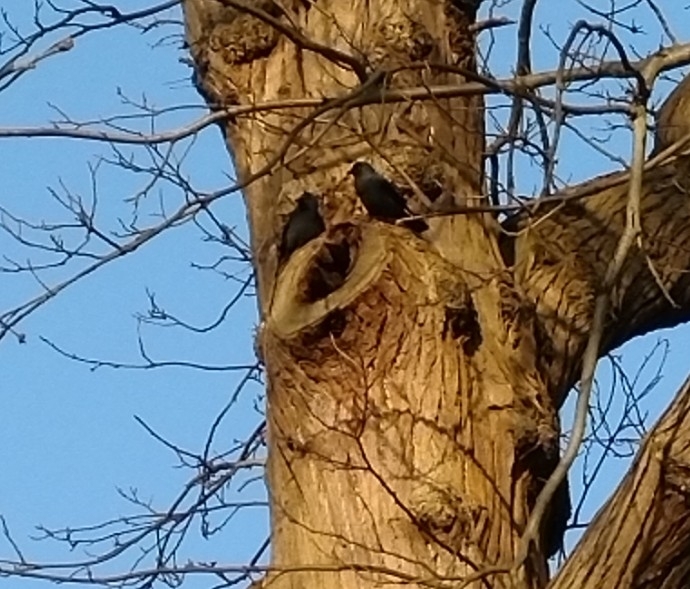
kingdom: Animalia
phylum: Chordata
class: Aves
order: Passeriformes
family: Corvidae
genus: Coloeus
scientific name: Coloeus monedula
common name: Western jackdaw
